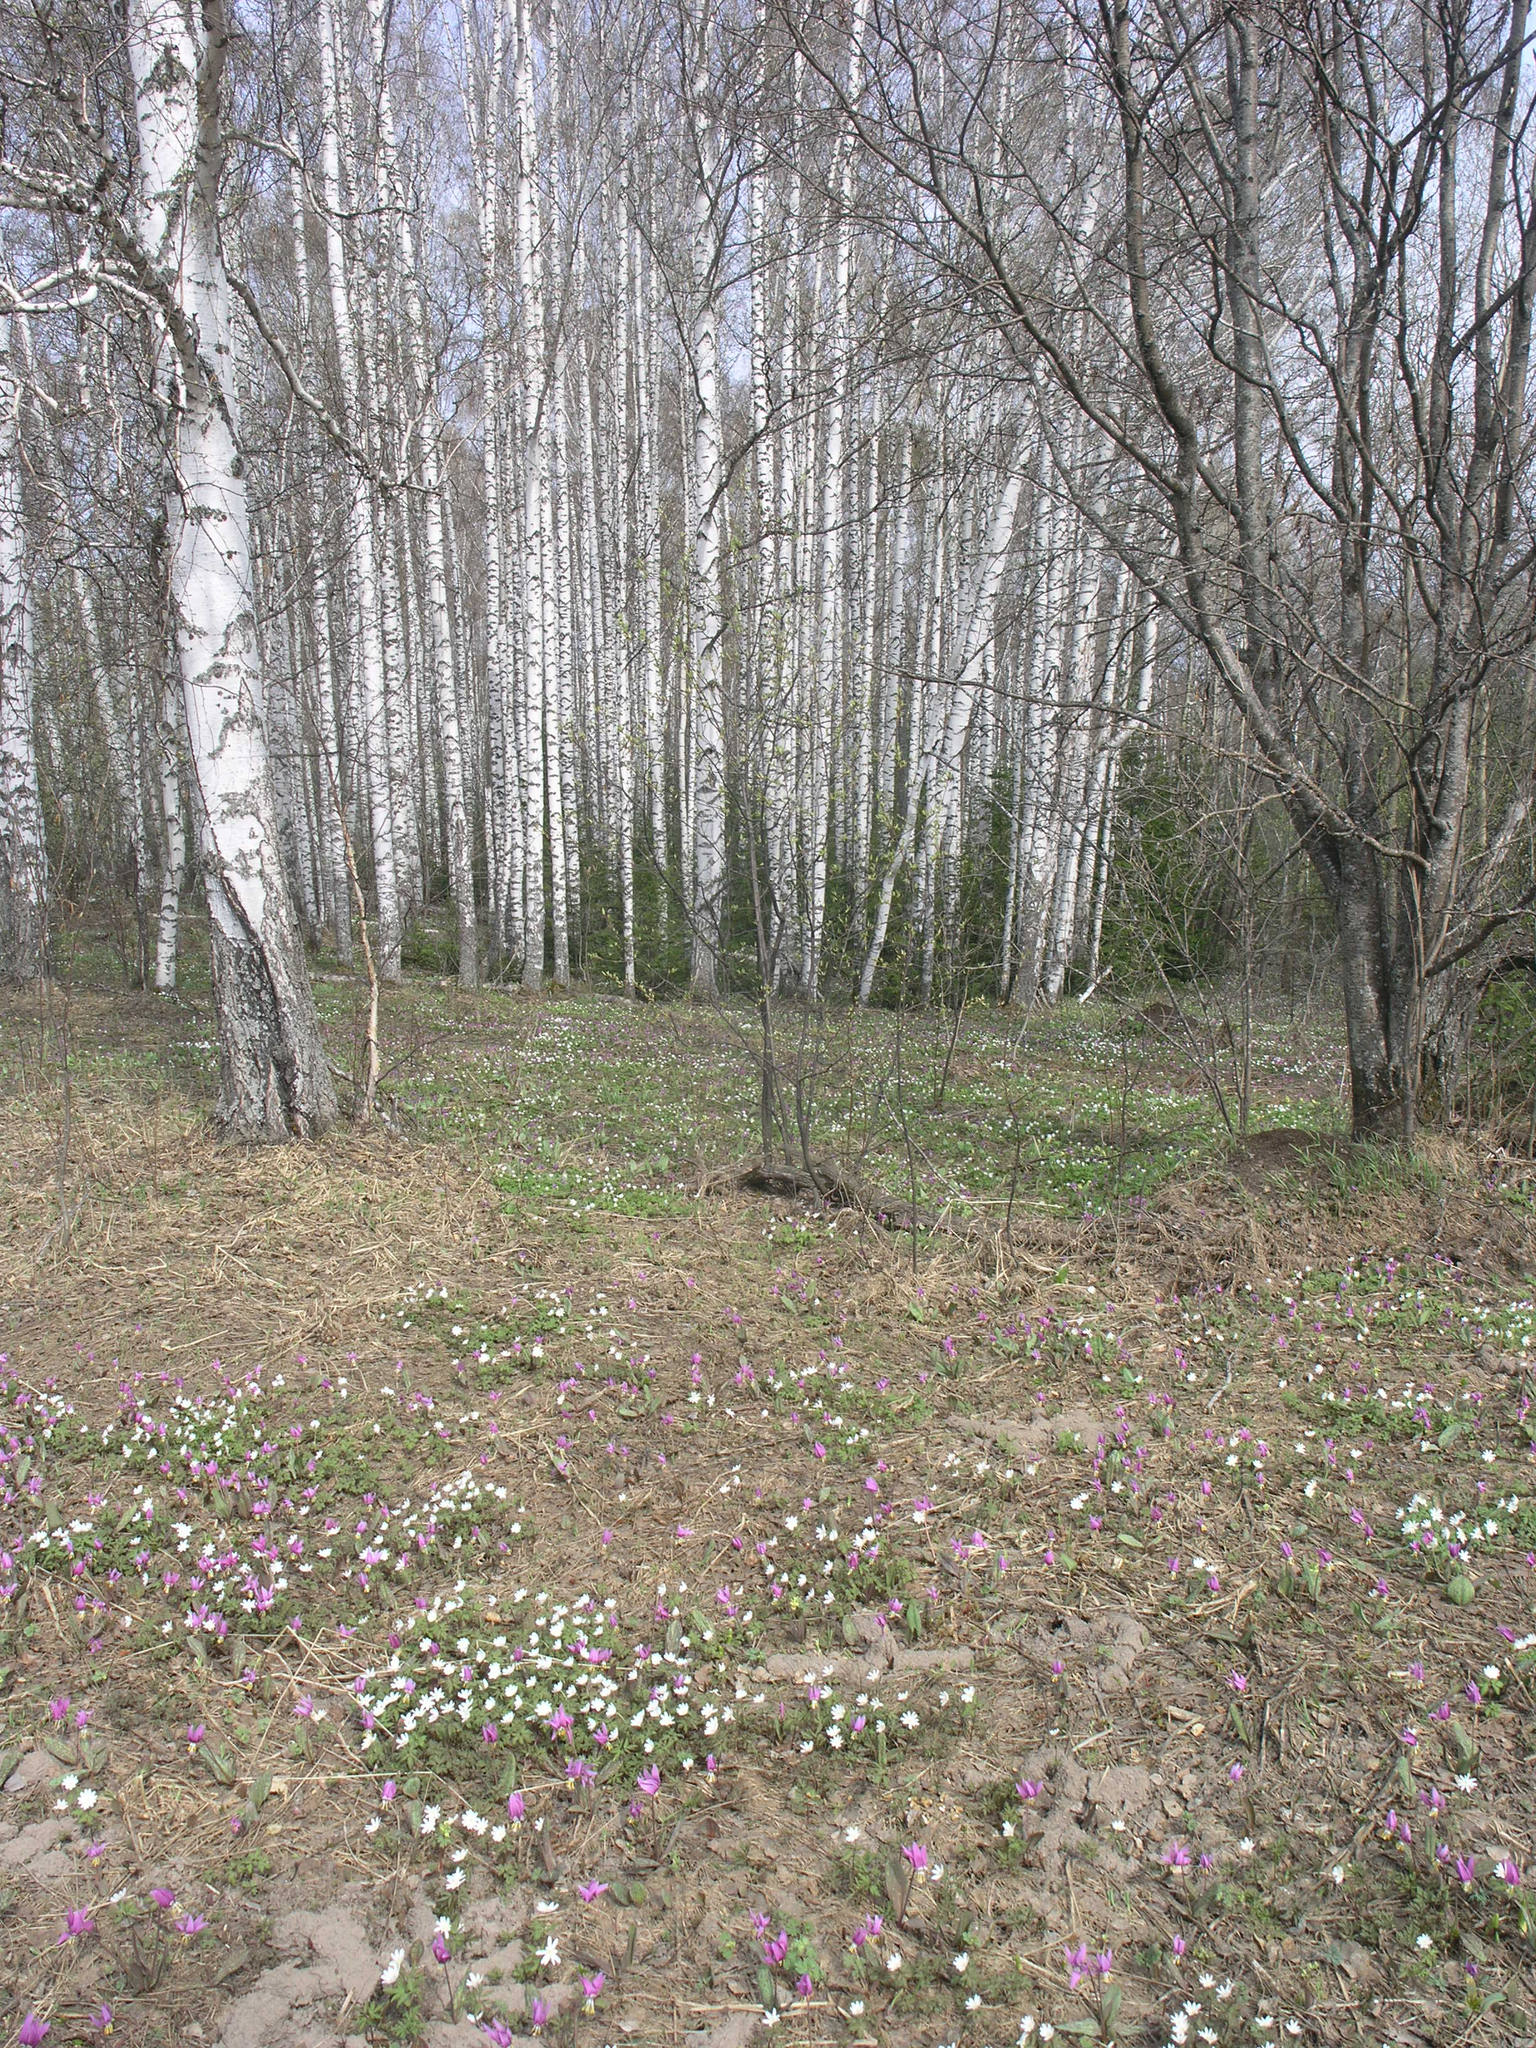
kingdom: Plantae
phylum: Tracheophyta
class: Magnoliopsida
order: Malpighiales
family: Salicaceae
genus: Salix
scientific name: Salix caprea
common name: Goat willow
